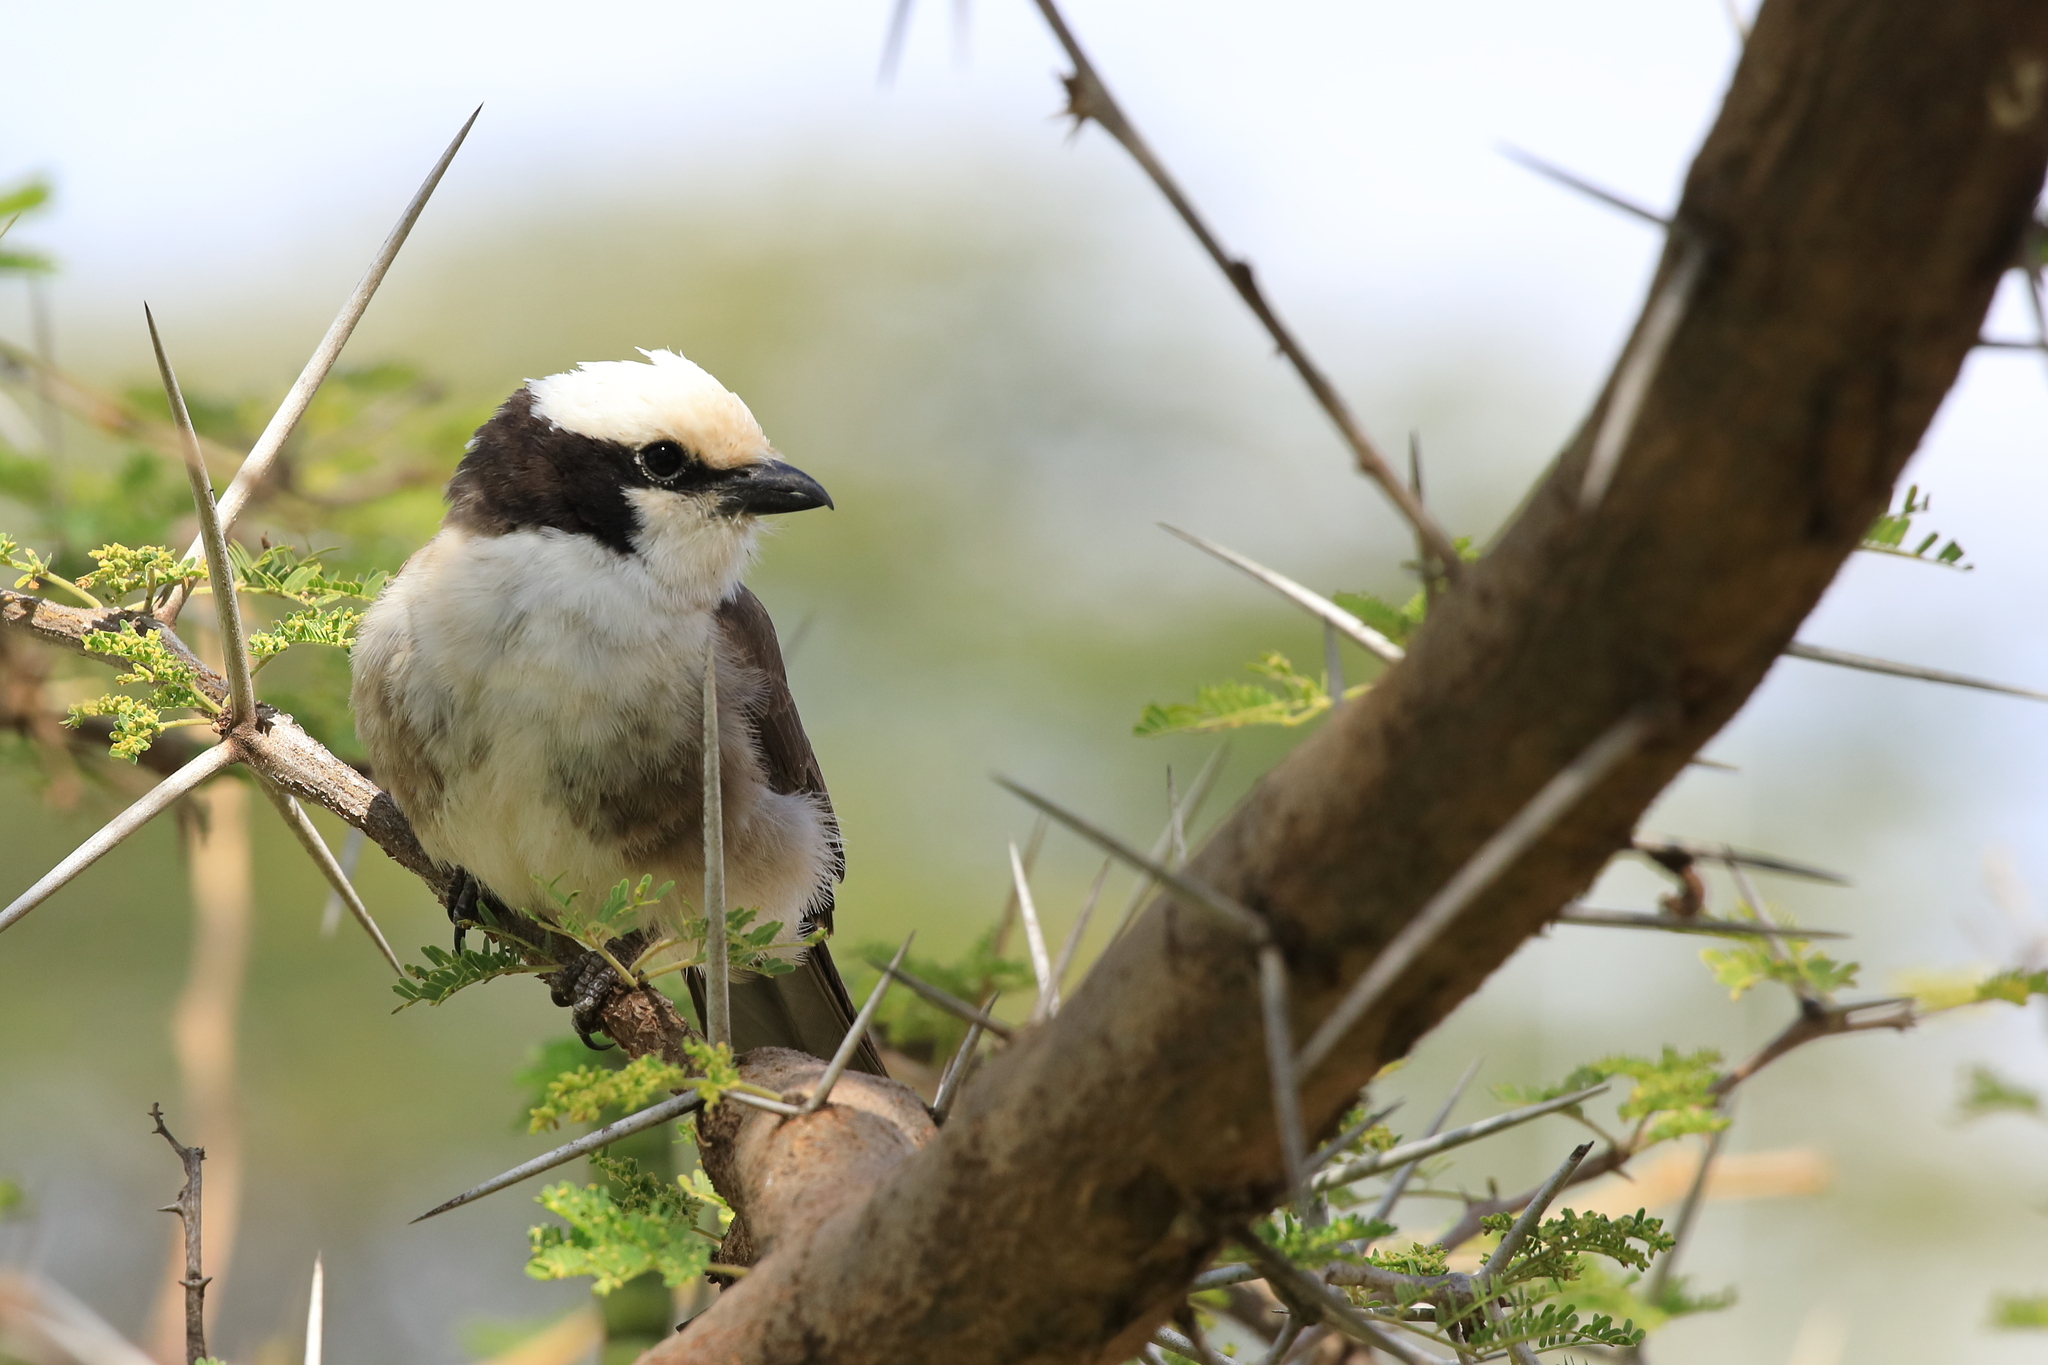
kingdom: Animalia
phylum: Chordata
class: Aves
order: Passeriformes
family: Laniidae
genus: Eurocephalus
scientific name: Eurocephalus ruppelli
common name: Northern white-crowned shrike
